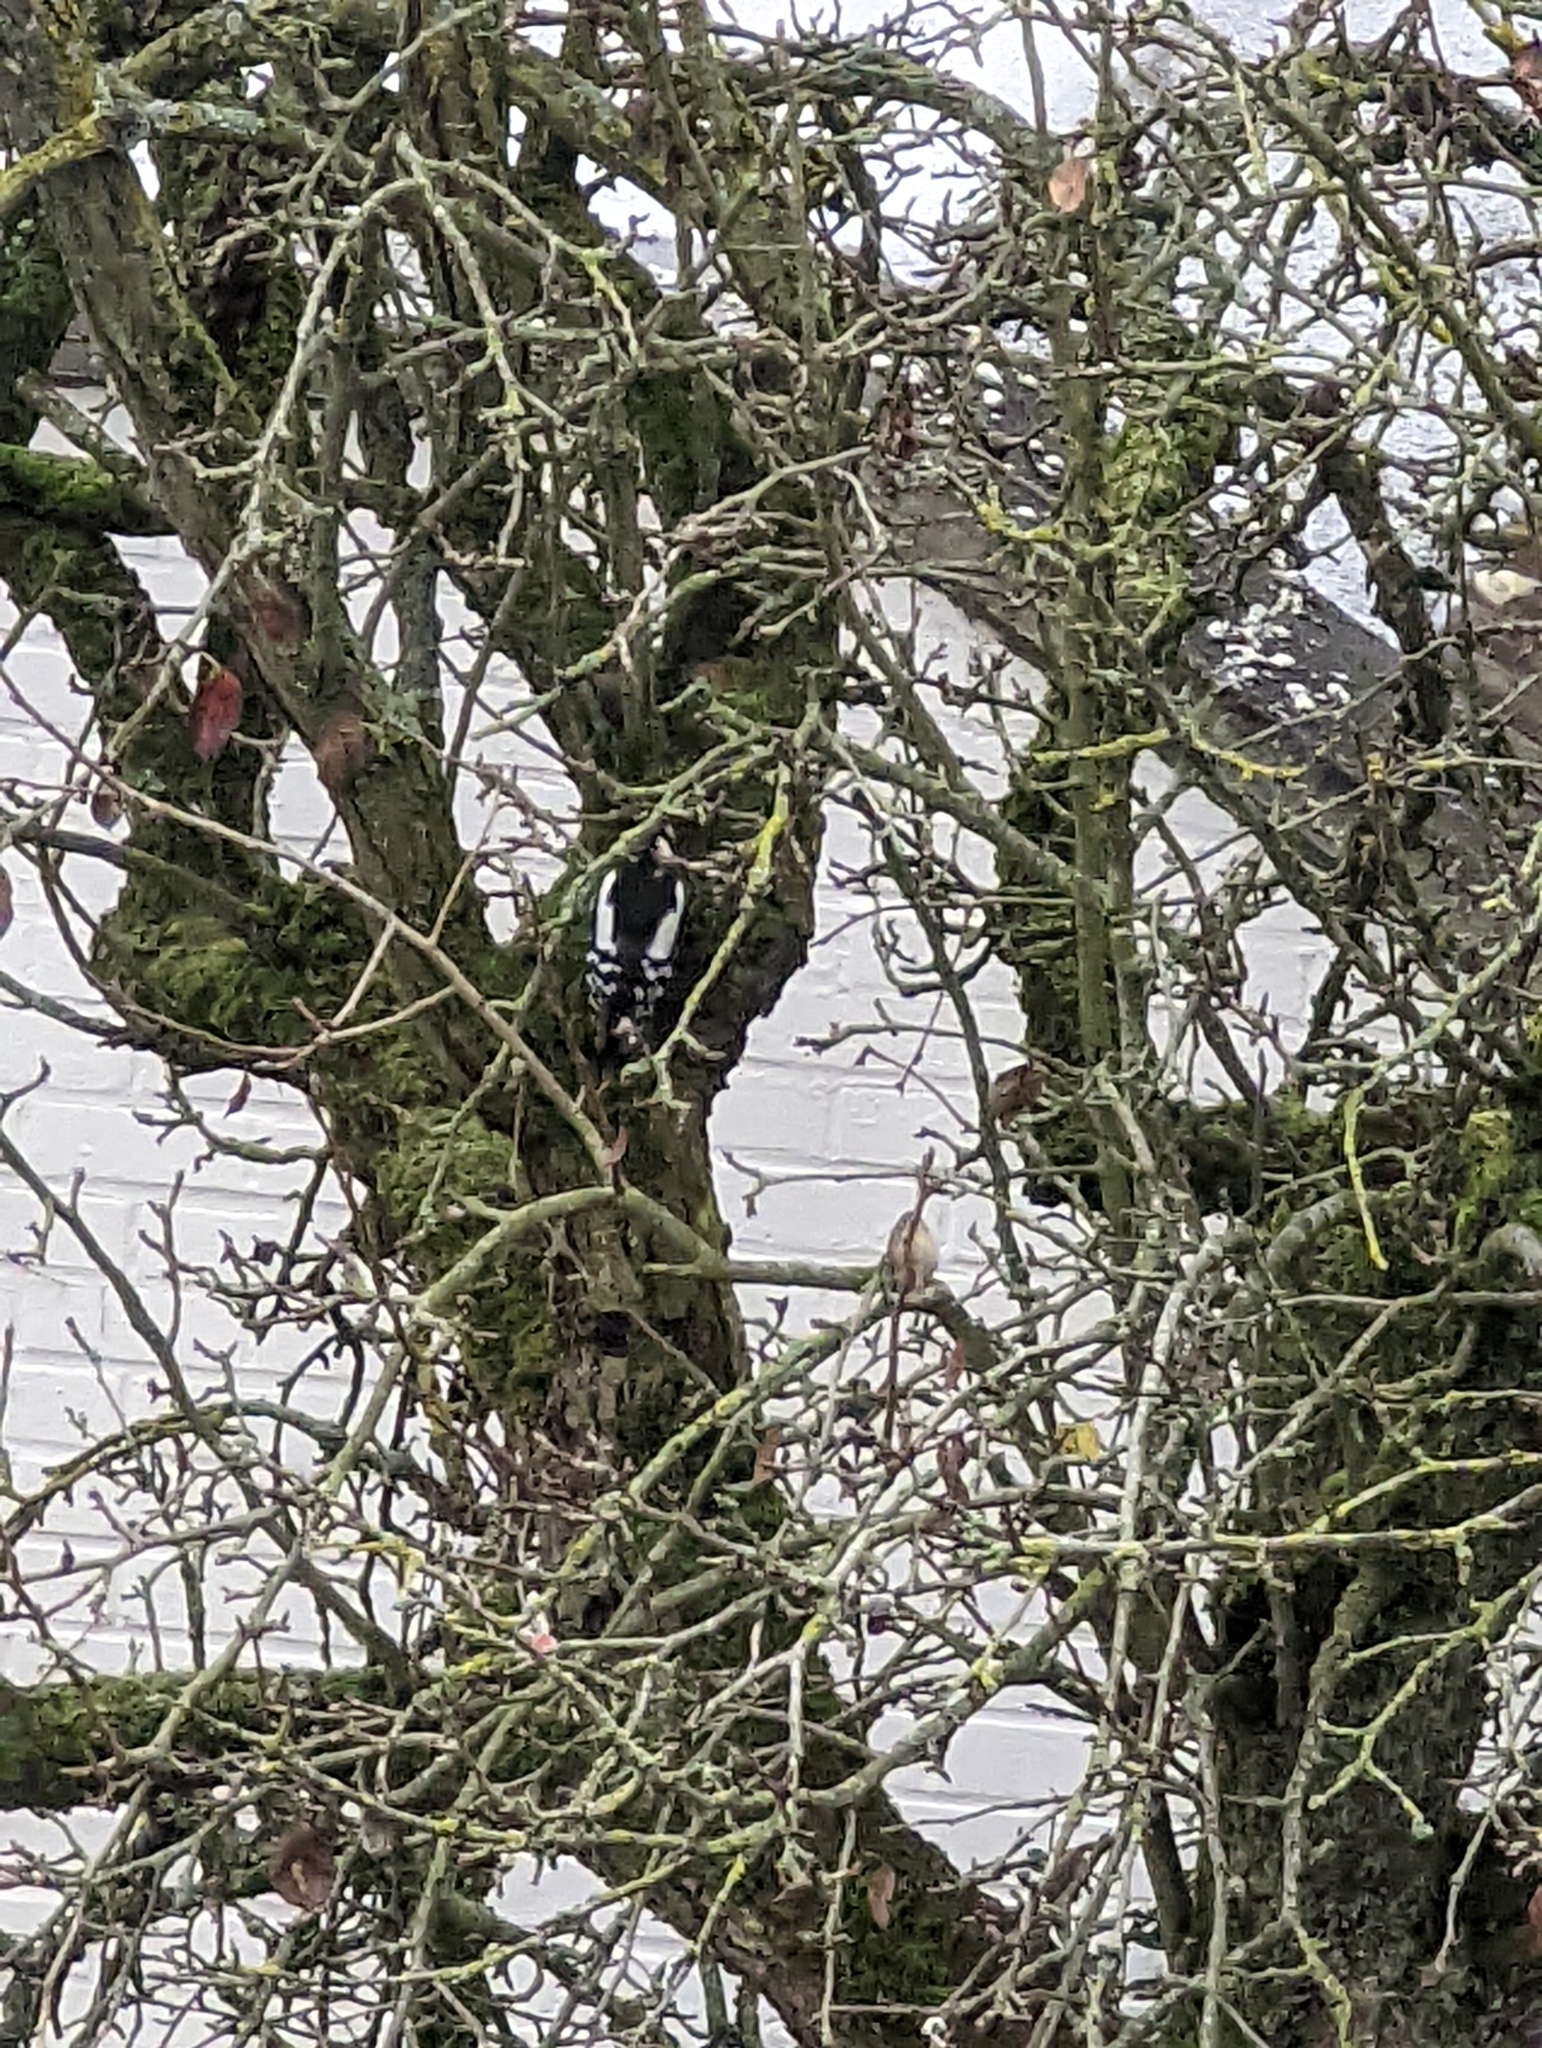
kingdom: Animalia
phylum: Chordata
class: Aves
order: Piciformes
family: Picidae
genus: Dendrocopos
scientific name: Dendrocopos major
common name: Great spotted woodpecker
